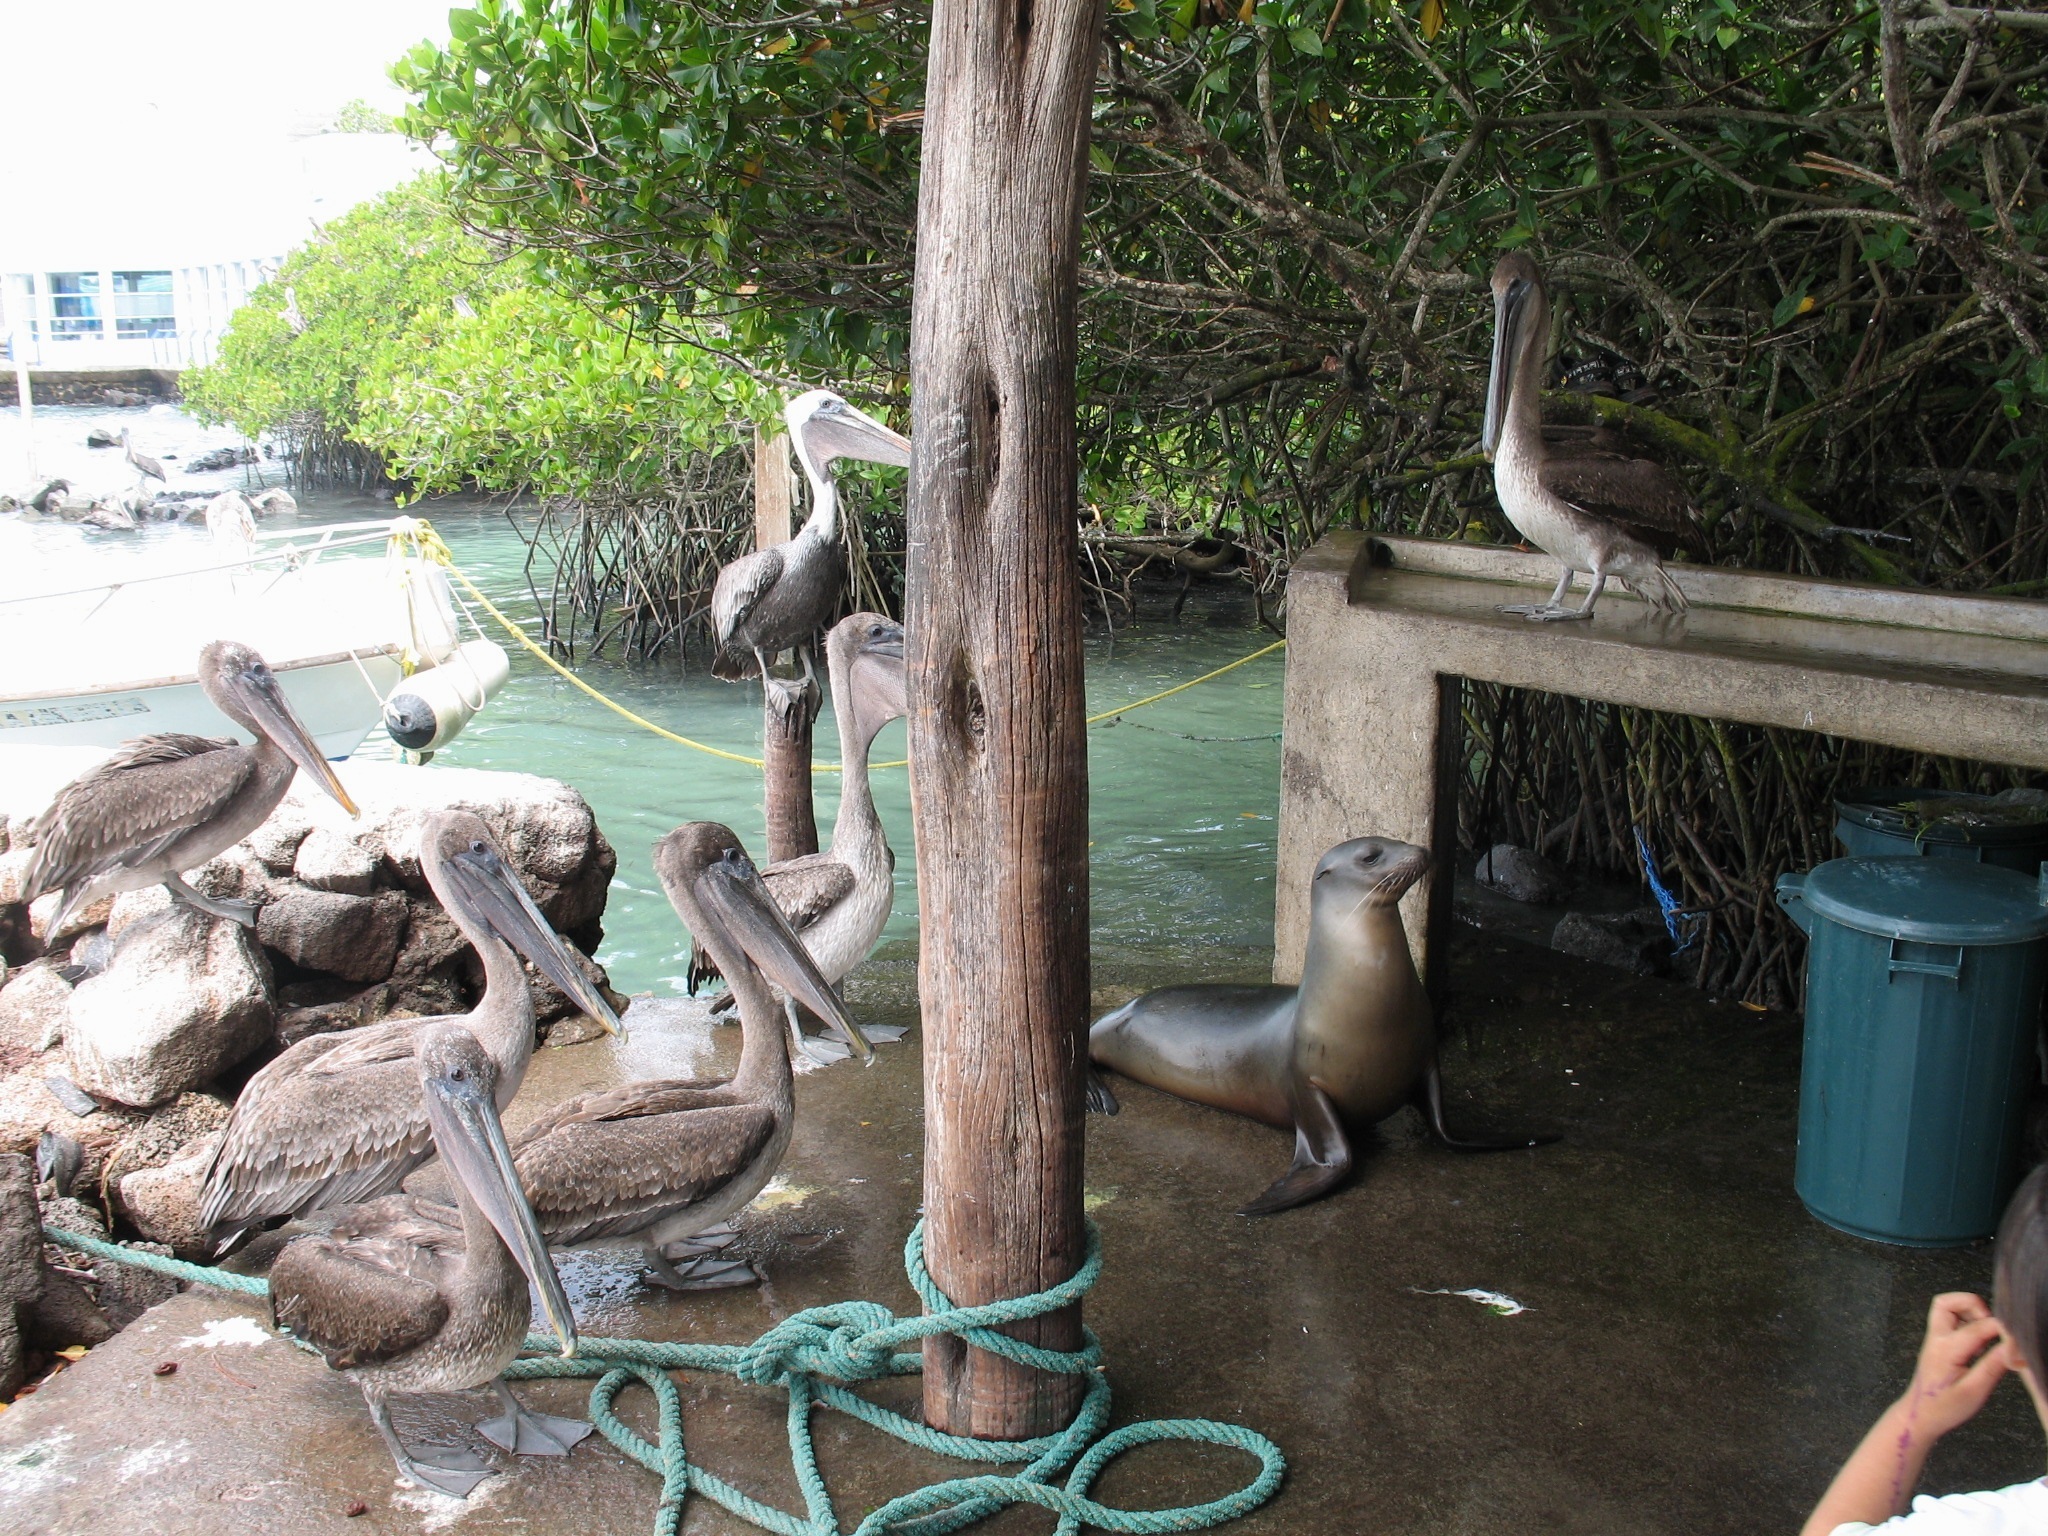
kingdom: Animalia
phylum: Chordata
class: Aves
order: Pelecaniformes
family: Pelecanidae
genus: Pelecanus
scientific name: Pelecanus occidentalis
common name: Brown pelican
